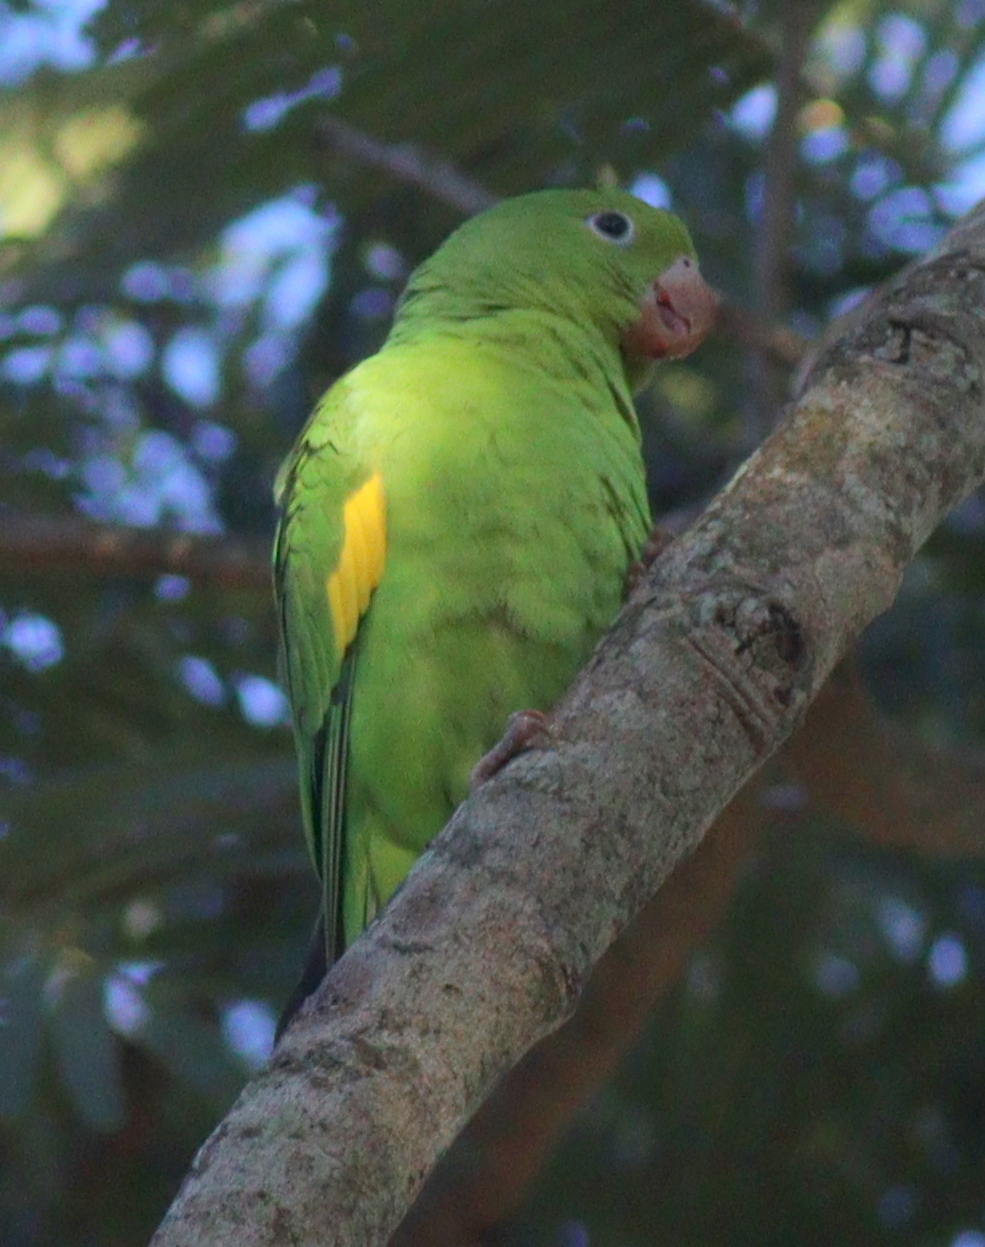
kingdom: Animalia
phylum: Chordata
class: Aves
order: Psittaciformes
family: Psittacidae
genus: Brotogeris
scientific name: Brotogeris chiriri
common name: Yellow-chevroned parakeet
